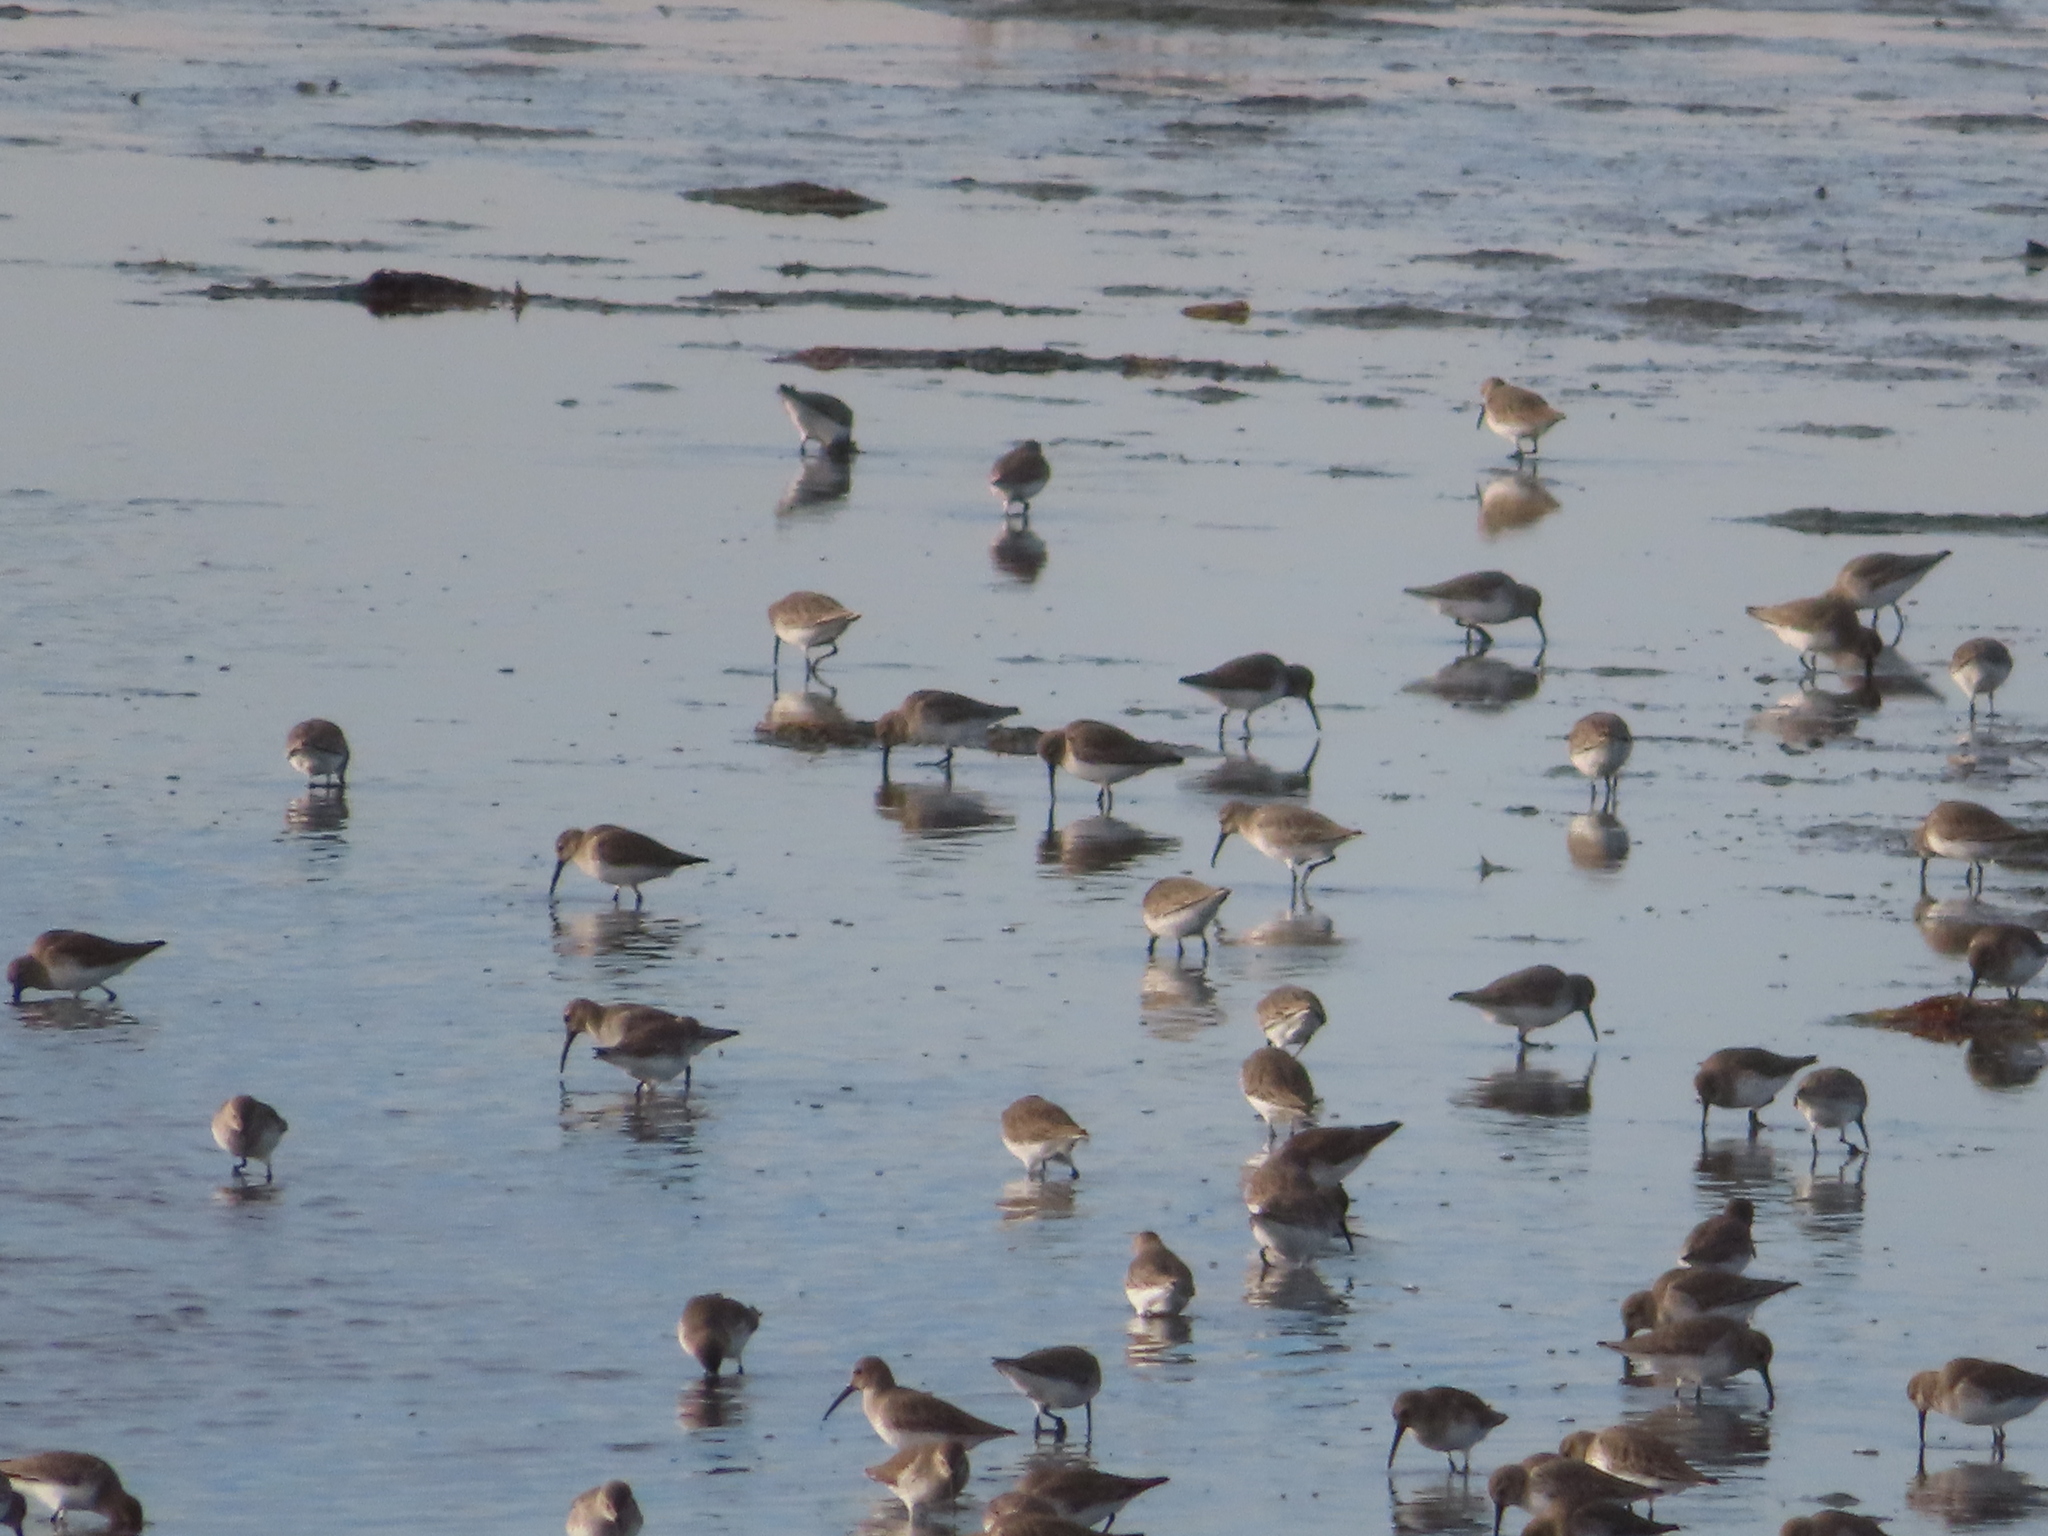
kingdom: Animalia
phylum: Chordata
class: Aves
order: Charadriiformes
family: Scolopacidae
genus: Calidris
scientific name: Calidris alpina
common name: Dunlin
